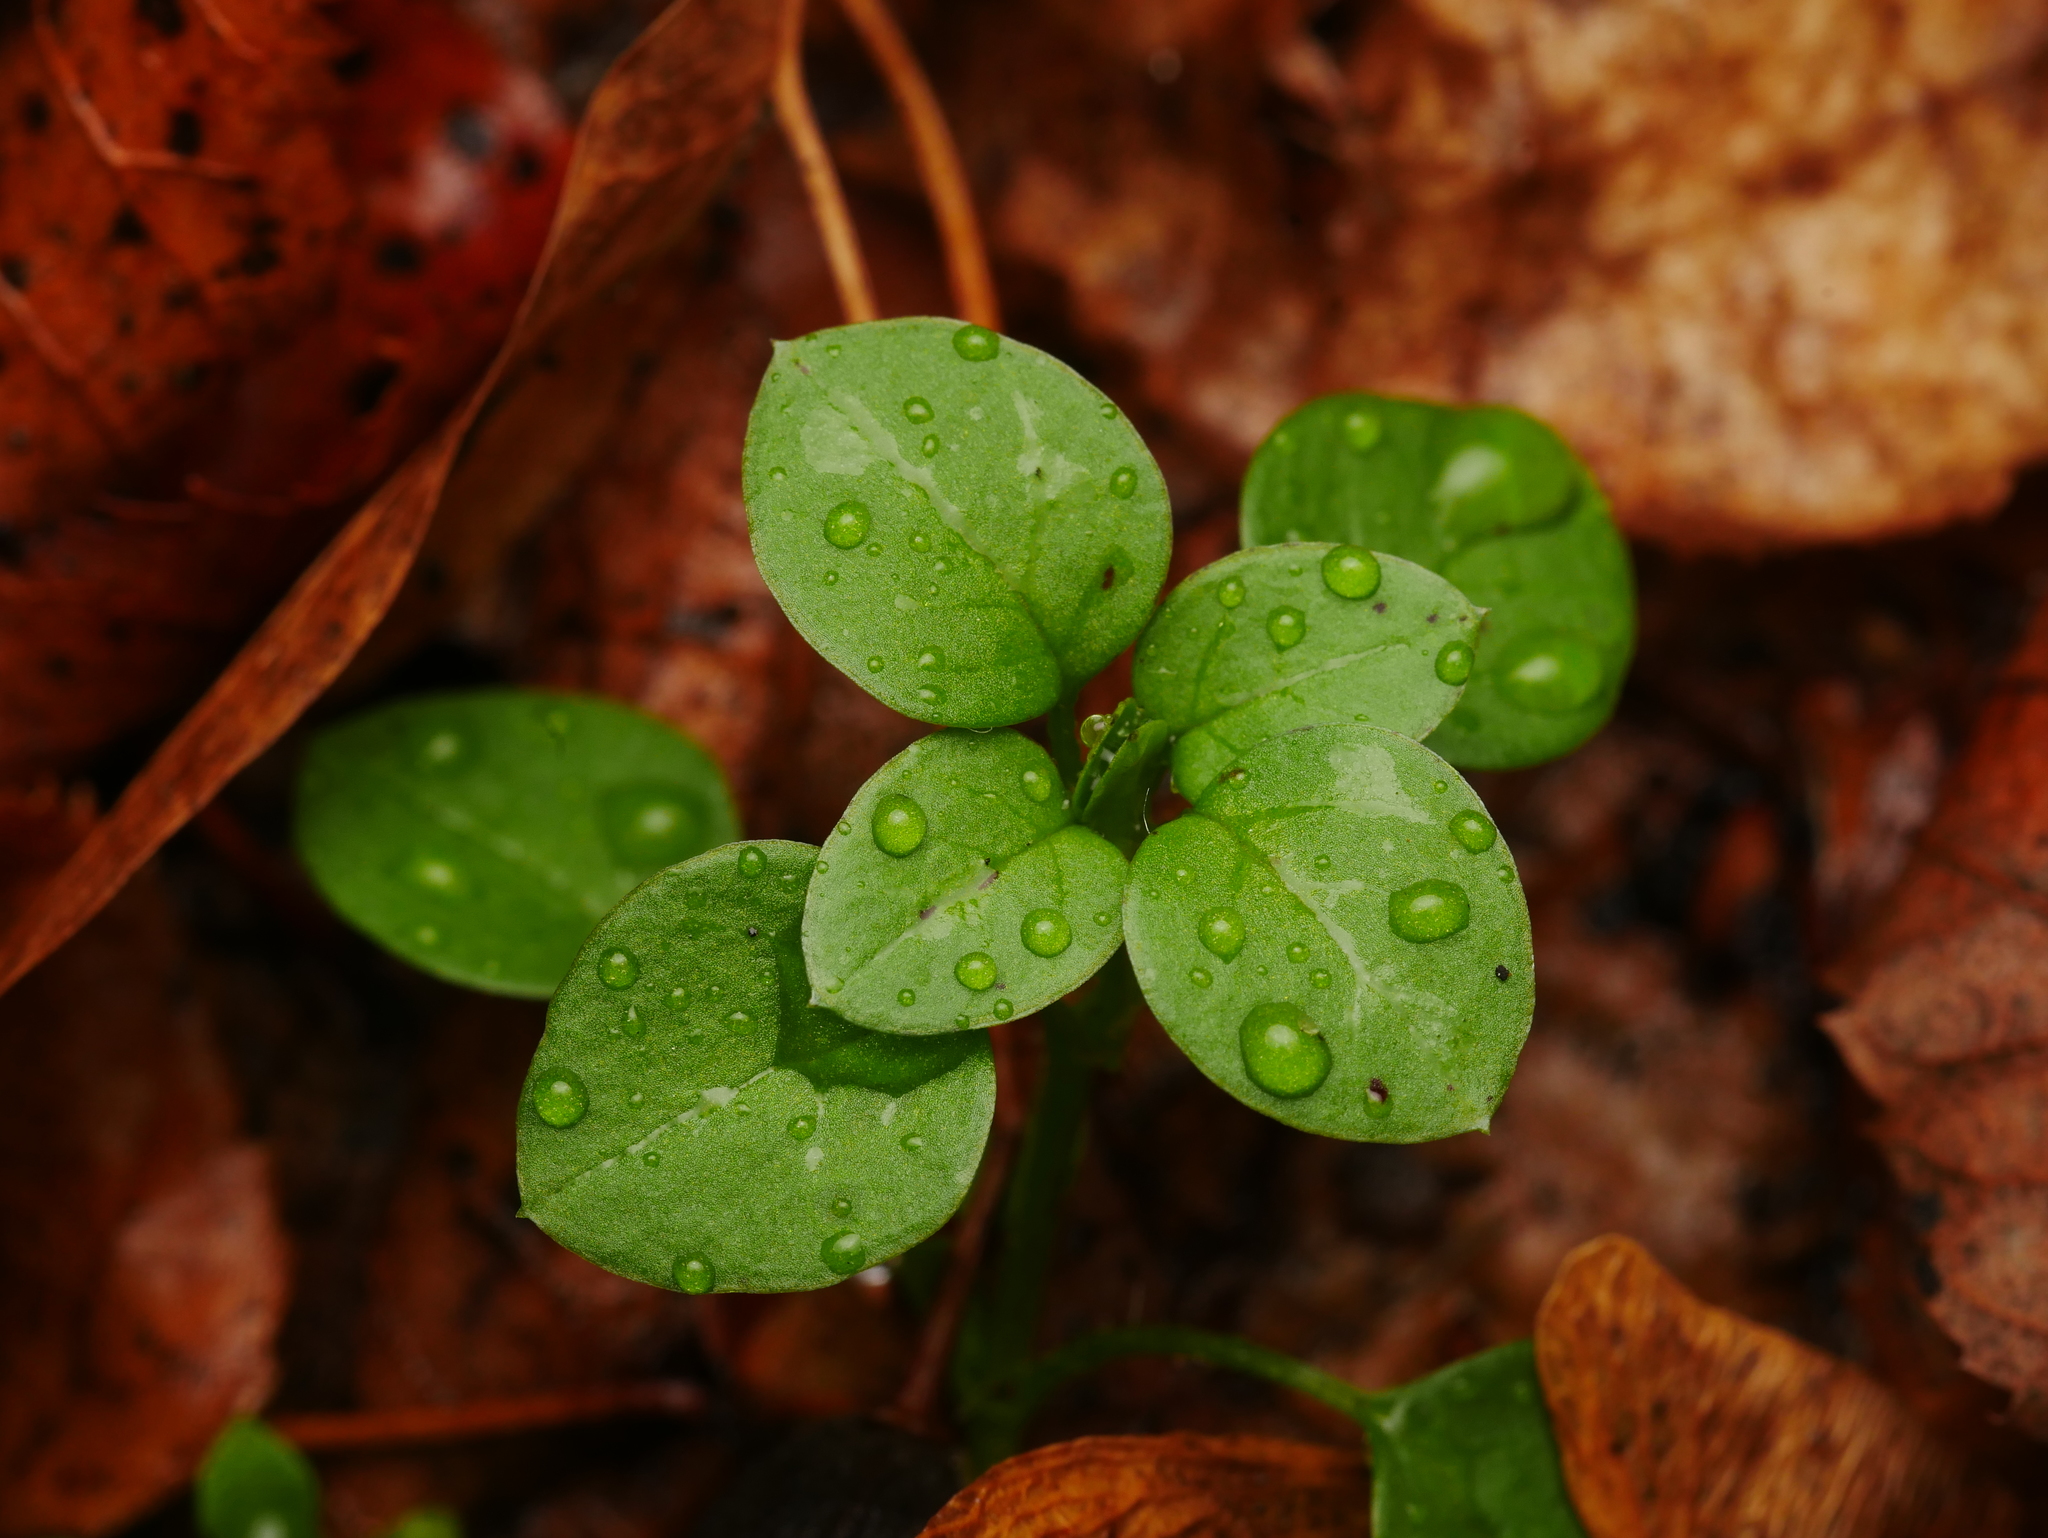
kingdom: Plantae
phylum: Tracheophyta
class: Magnoliopsida
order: Caryophyllales
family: Caryophyllaceae
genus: Stellaria
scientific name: Stellaria media
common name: Common chickweed
